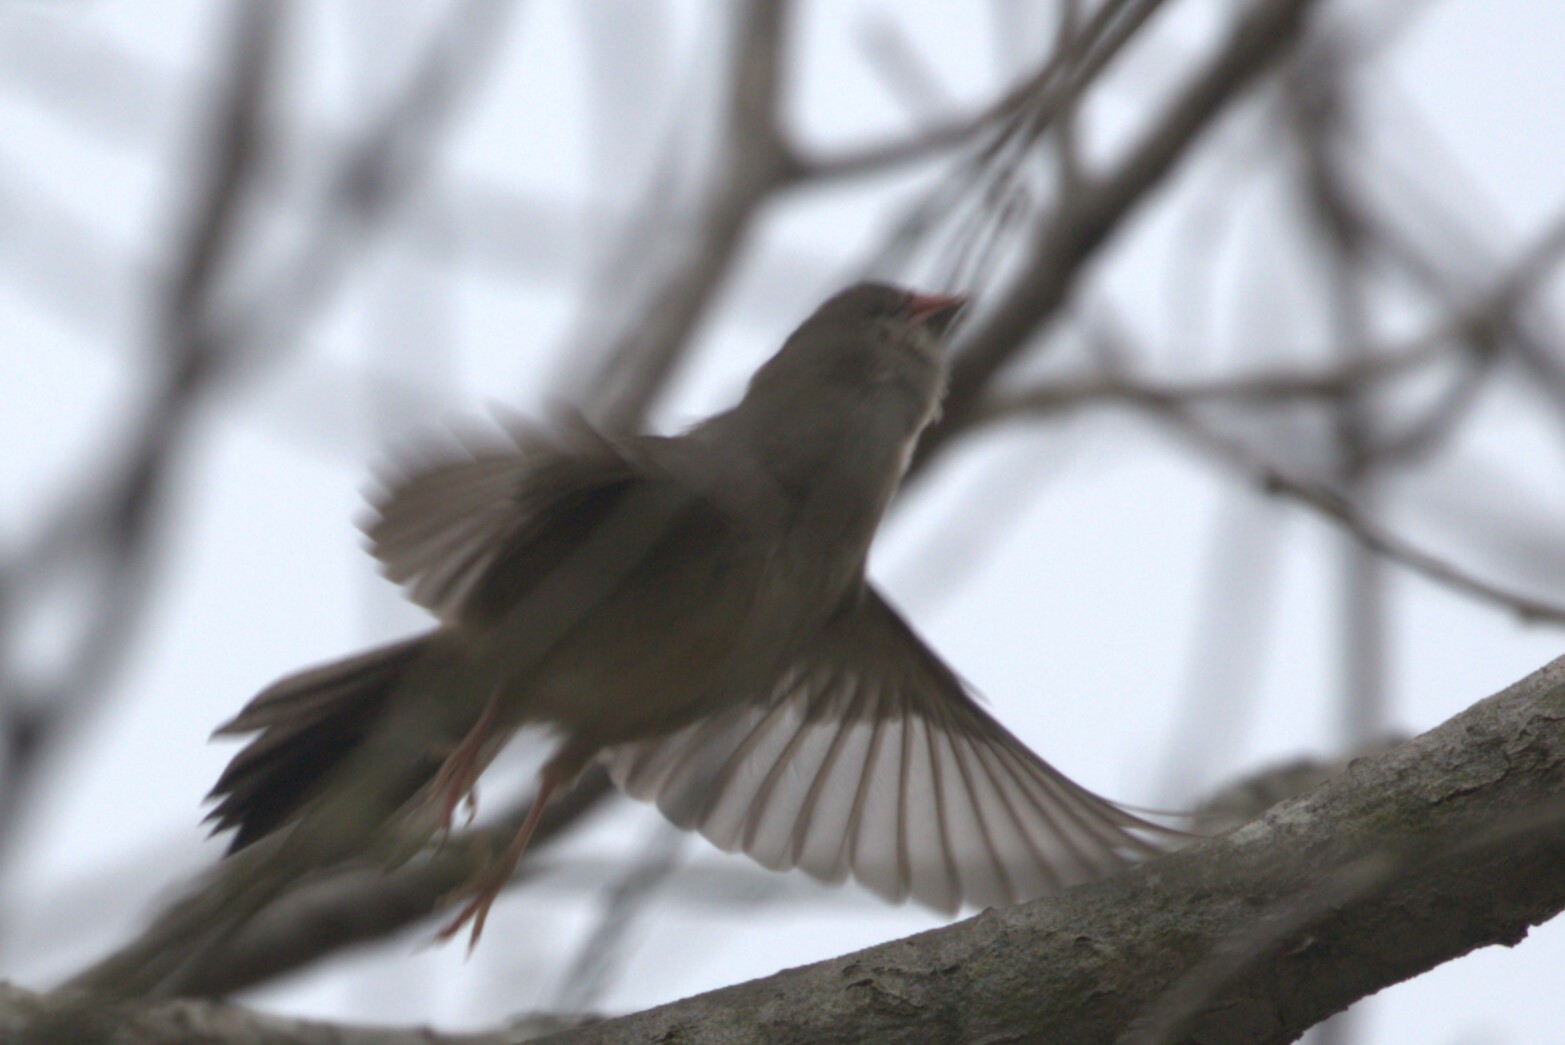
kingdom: Animalia
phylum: Chordata
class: Aves
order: Passeriformes
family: Estrildidae
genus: Neochmia
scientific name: Neochmia temporalis
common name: Red-browed finch
